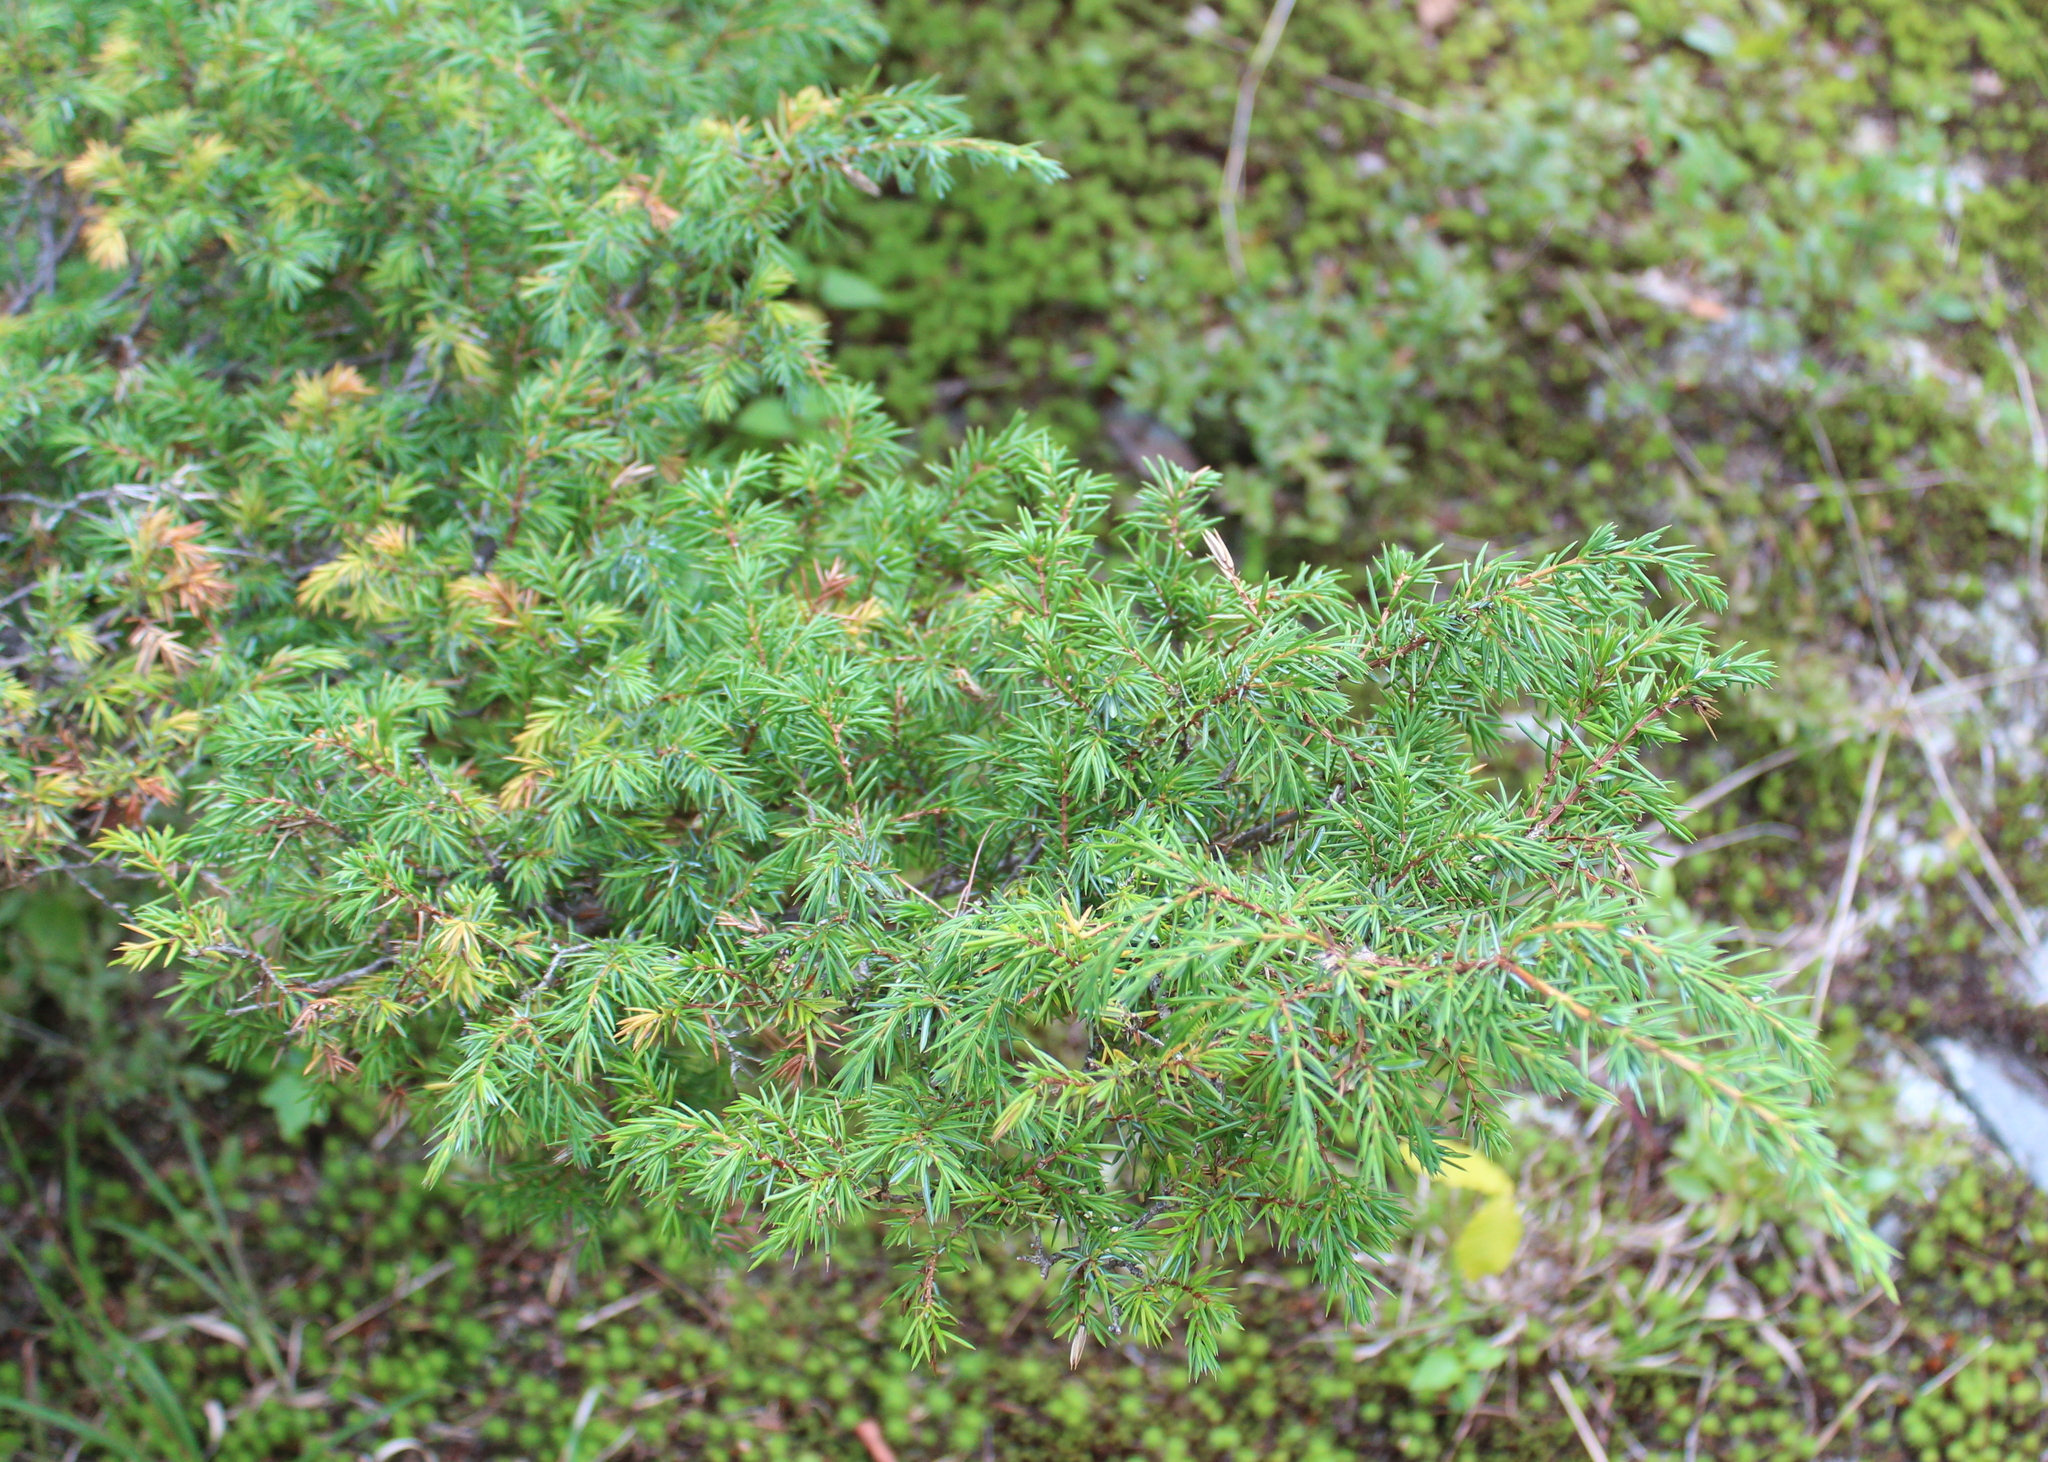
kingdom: Plantae
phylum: Tracheophyta
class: Pinopsida
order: Pinales
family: Cupressaceae
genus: Juniperus
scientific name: Juniperus communis
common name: Common juniper
